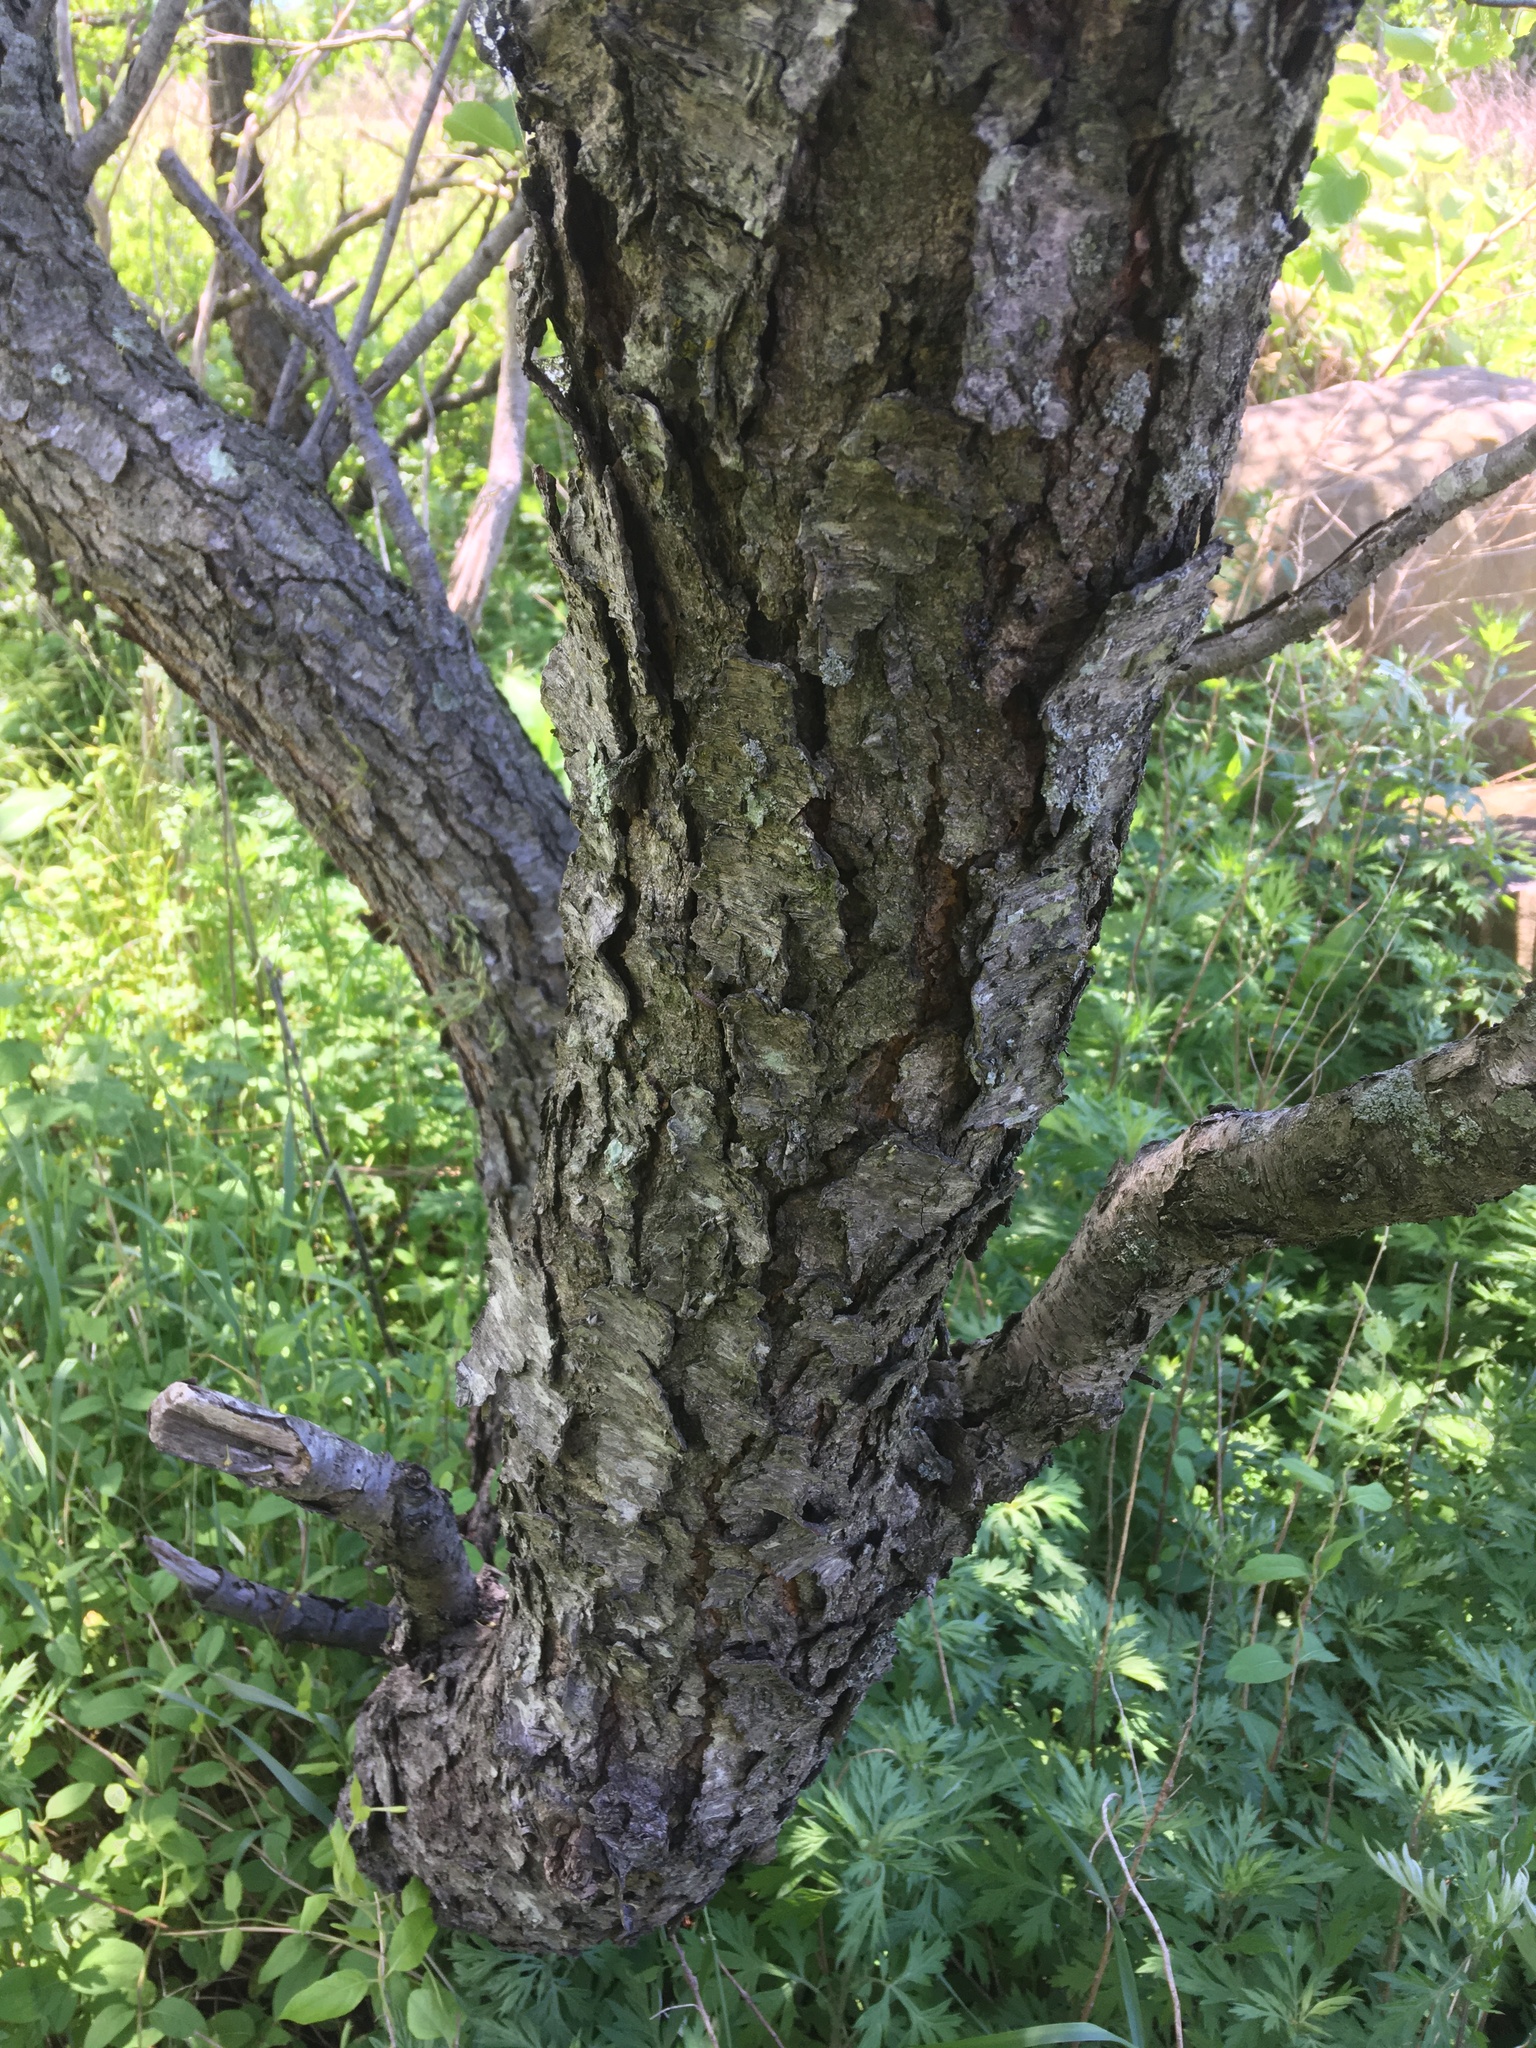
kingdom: Plantae
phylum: Tracheophyta
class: Magnoliopsida
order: Rosales
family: Rosaceae
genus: Prunus
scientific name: Prunus serotina
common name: Black cherry
